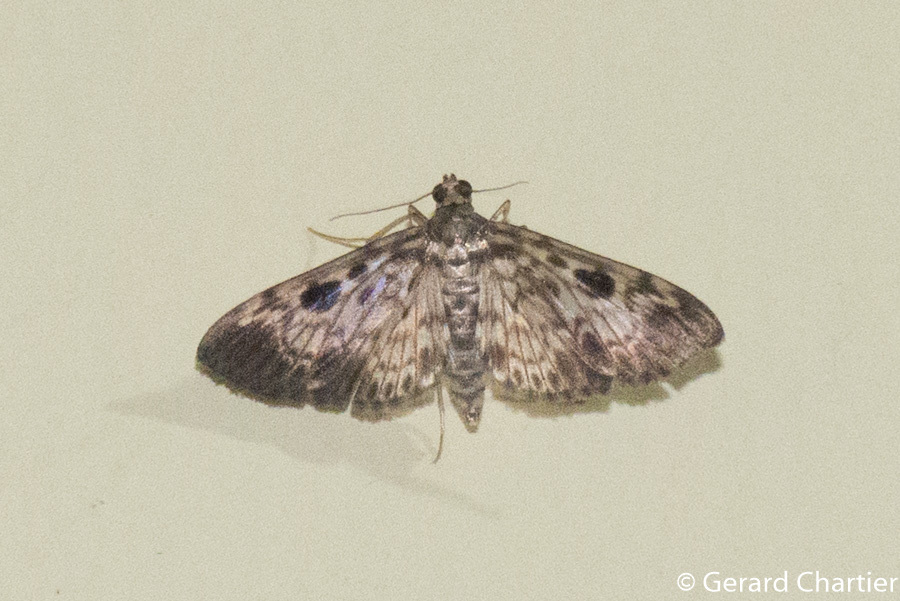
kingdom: Animalia
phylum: Arthropoda
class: Insecta
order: Lepidoptera
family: Crambidae
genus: Rhimphaliodes
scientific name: Rhimphaliodes macrostigma
